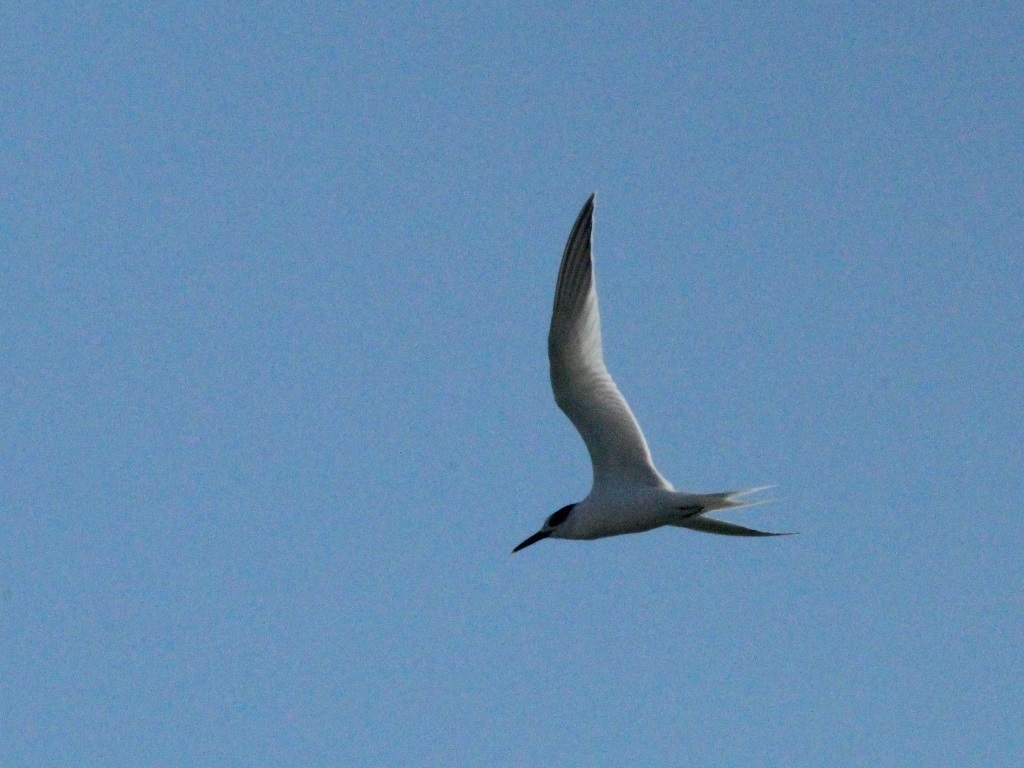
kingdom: Animalia
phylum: Chordata
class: Aves
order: Charadriiformes
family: Laridae
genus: Thalasseus
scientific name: Thalasseus sandvicensis
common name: Sandwich tern
